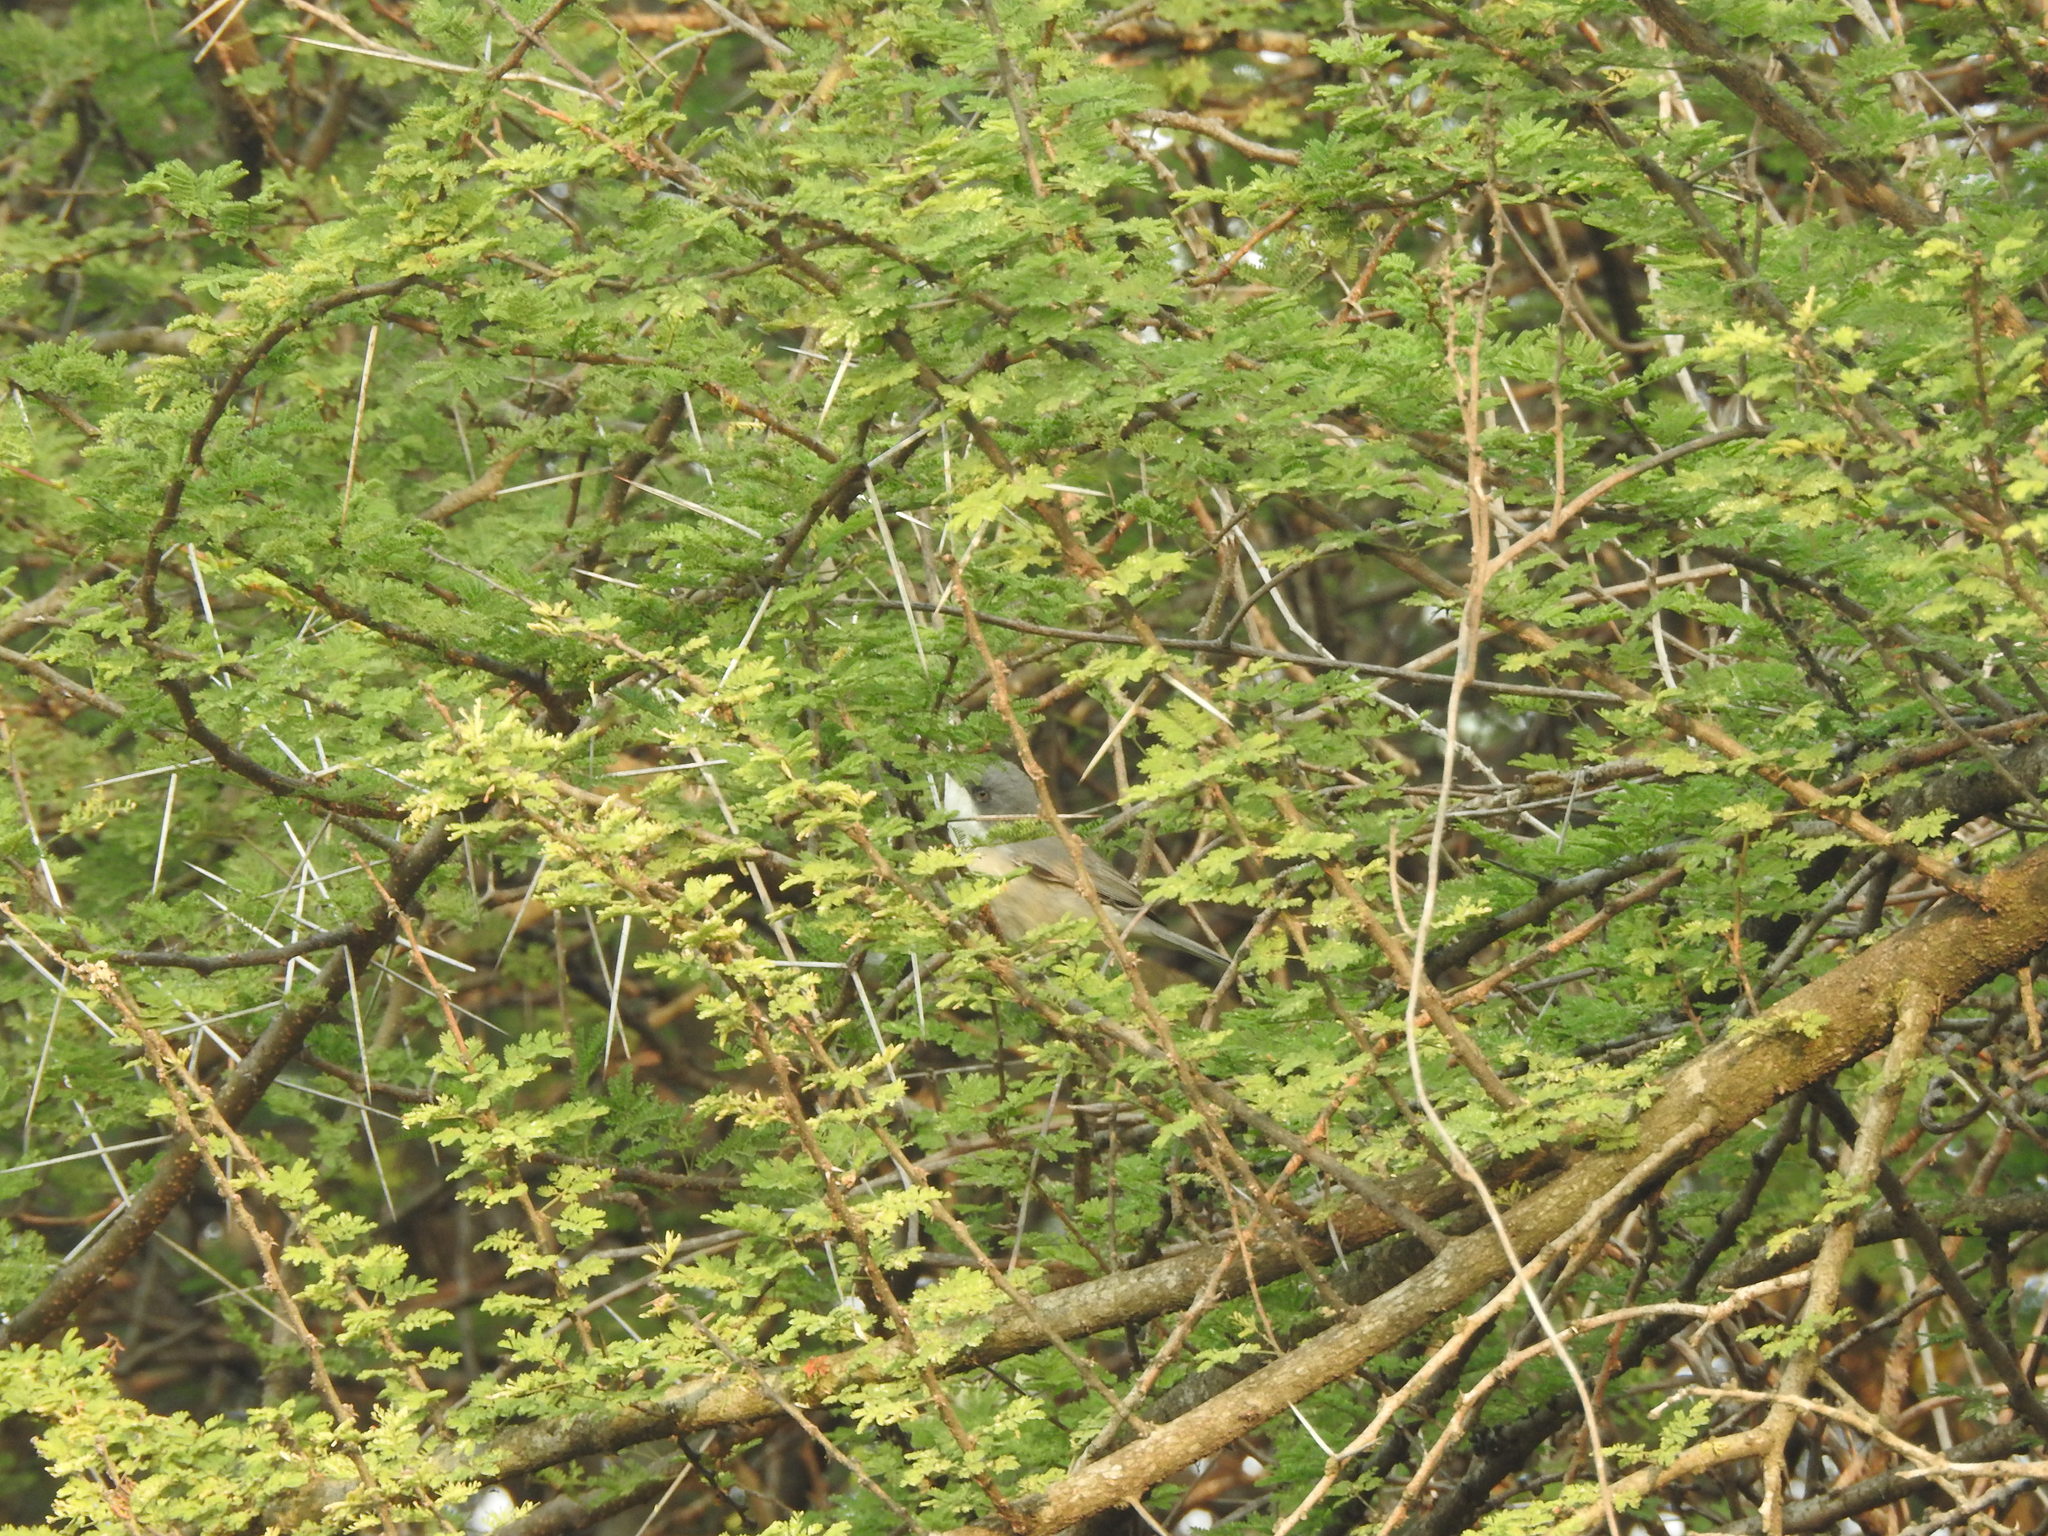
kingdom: Animalia
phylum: Chordata
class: Aves
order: Passeriformes
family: Sylviidae
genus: Sylvia
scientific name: Sylvia curruca
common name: Lesser whitethroat
